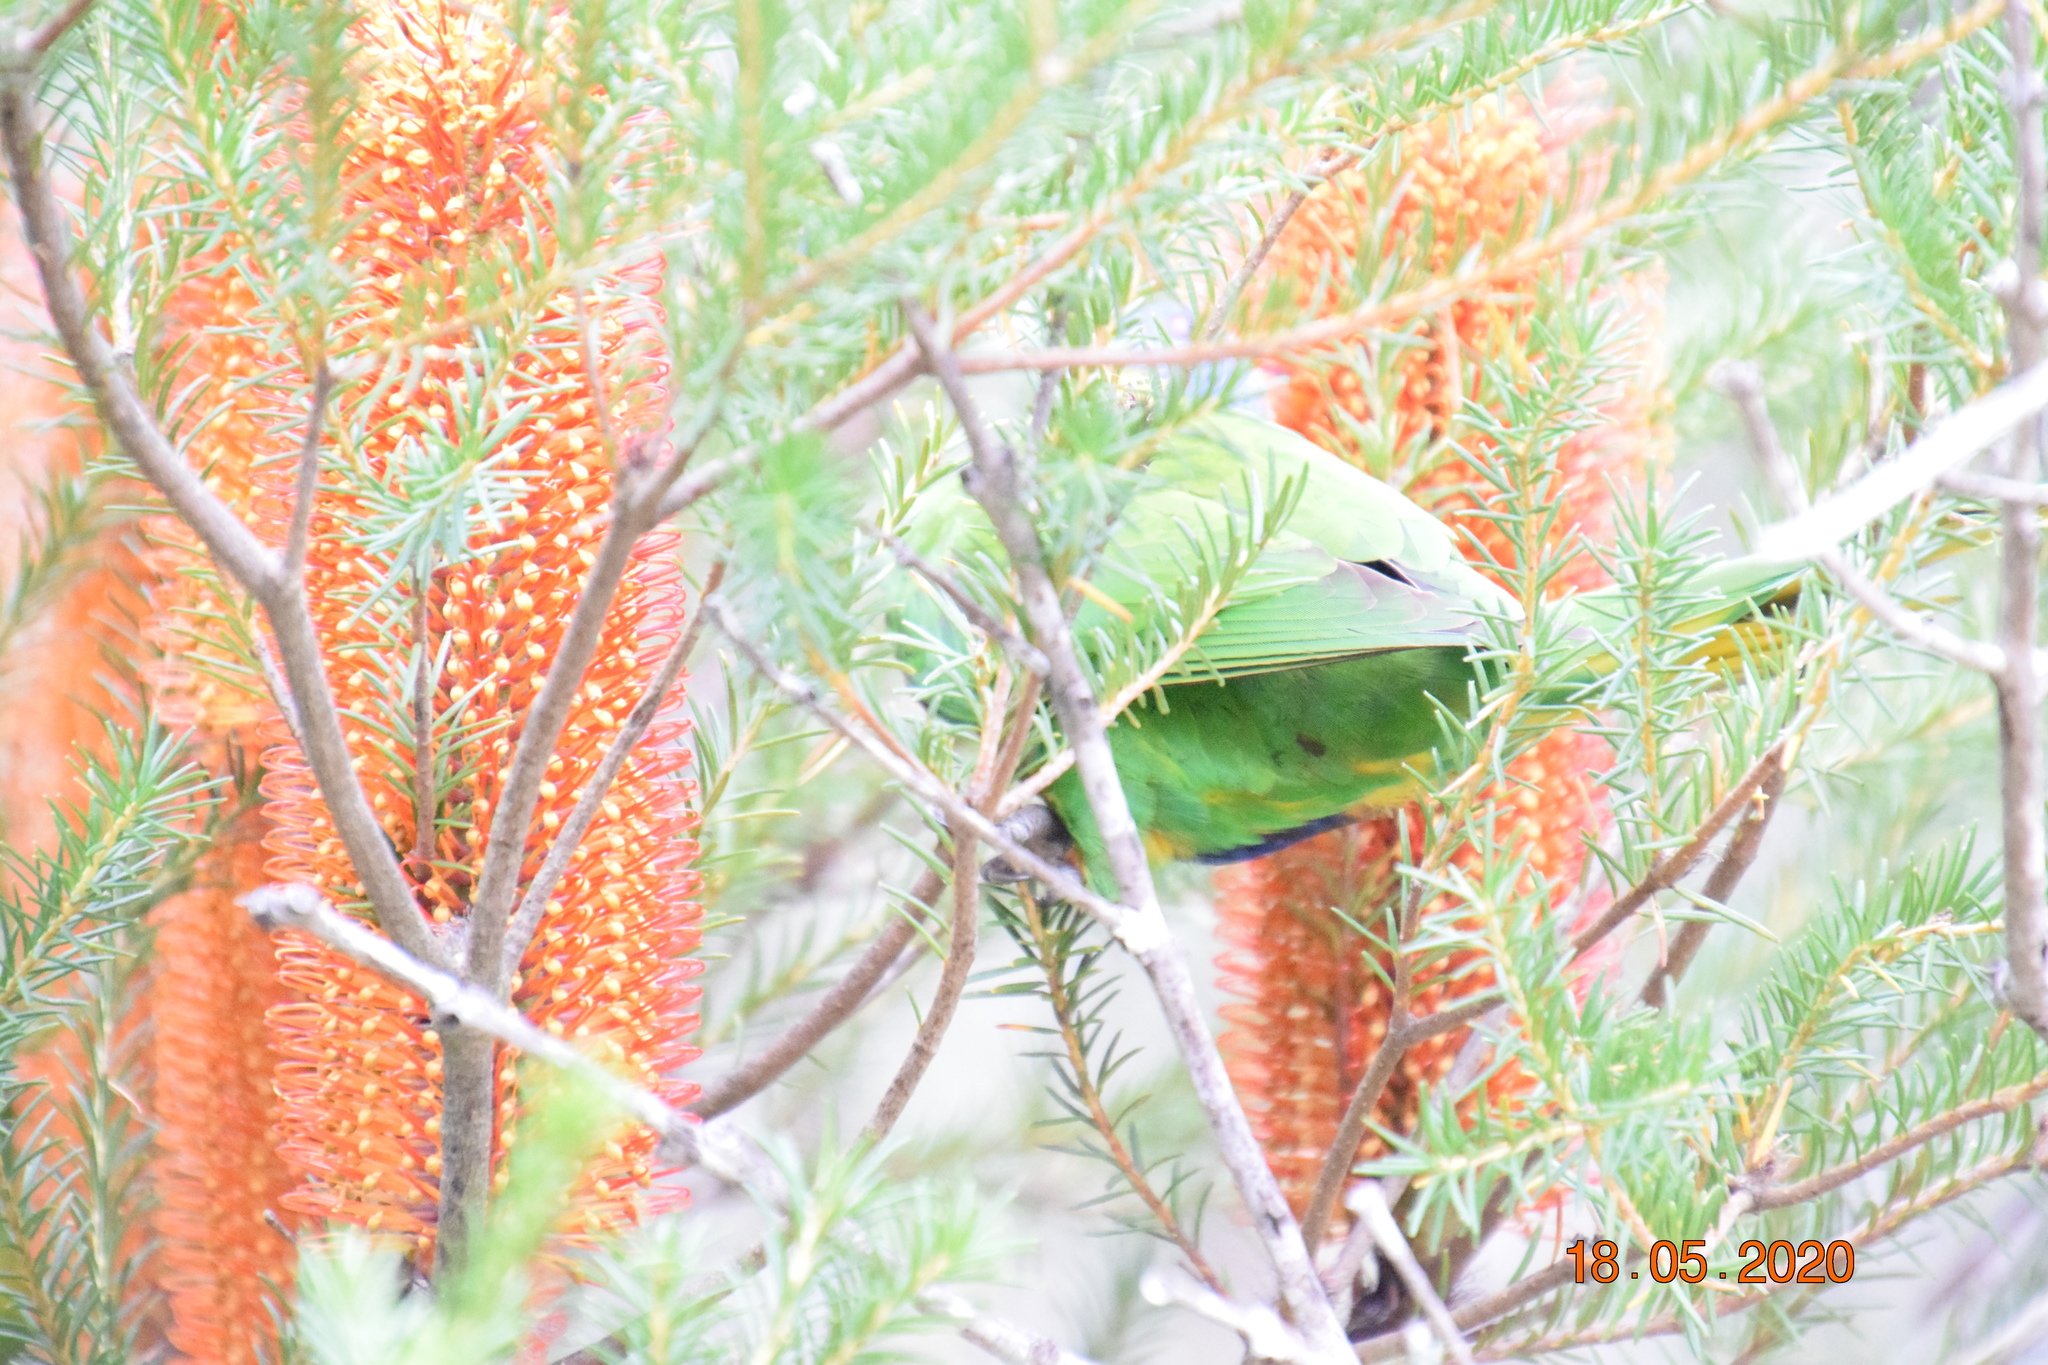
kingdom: Animalia
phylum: Chordata
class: Aves
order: Psittaciformes
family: Psittacidae
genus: Trichoglossus
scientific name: Trichoglossus haematodus
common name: Coconut lorikeet
